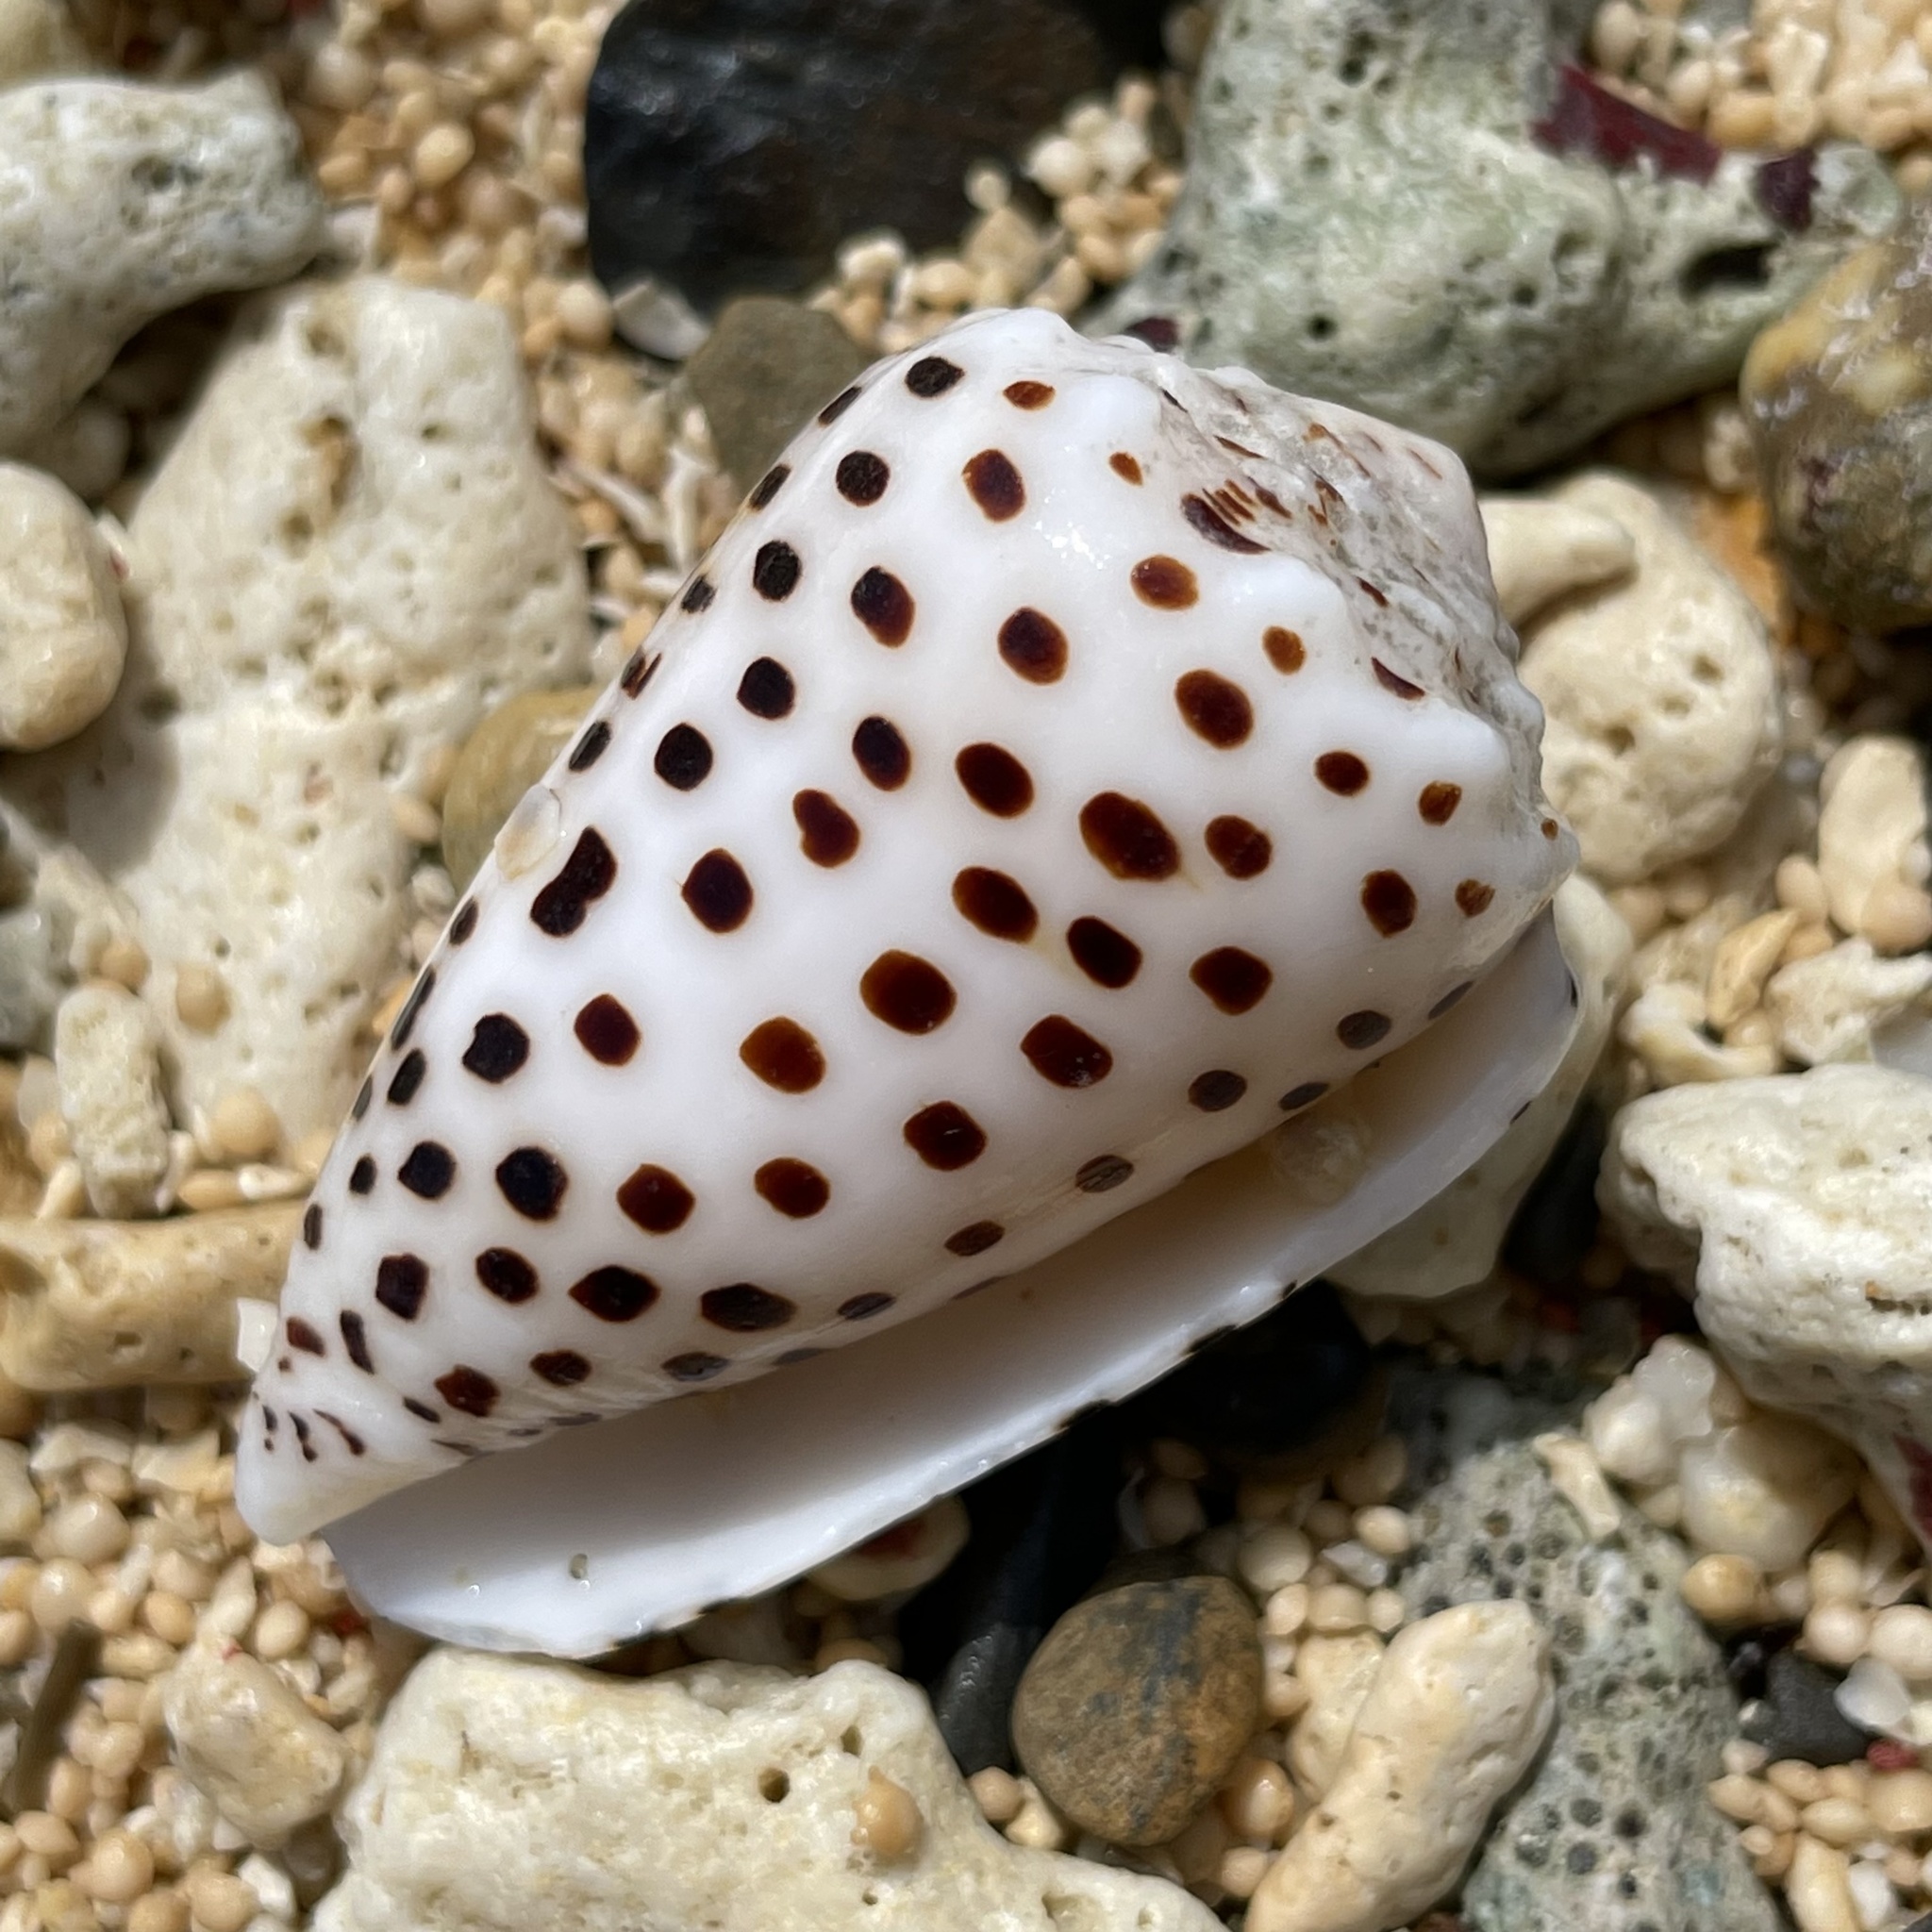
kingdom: Animalia
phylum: Mollusca
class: Gastropoda
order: Neogastropoda
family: Conidae
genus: Conus
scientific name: Conus pulicarius
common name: Flea-bite cone
